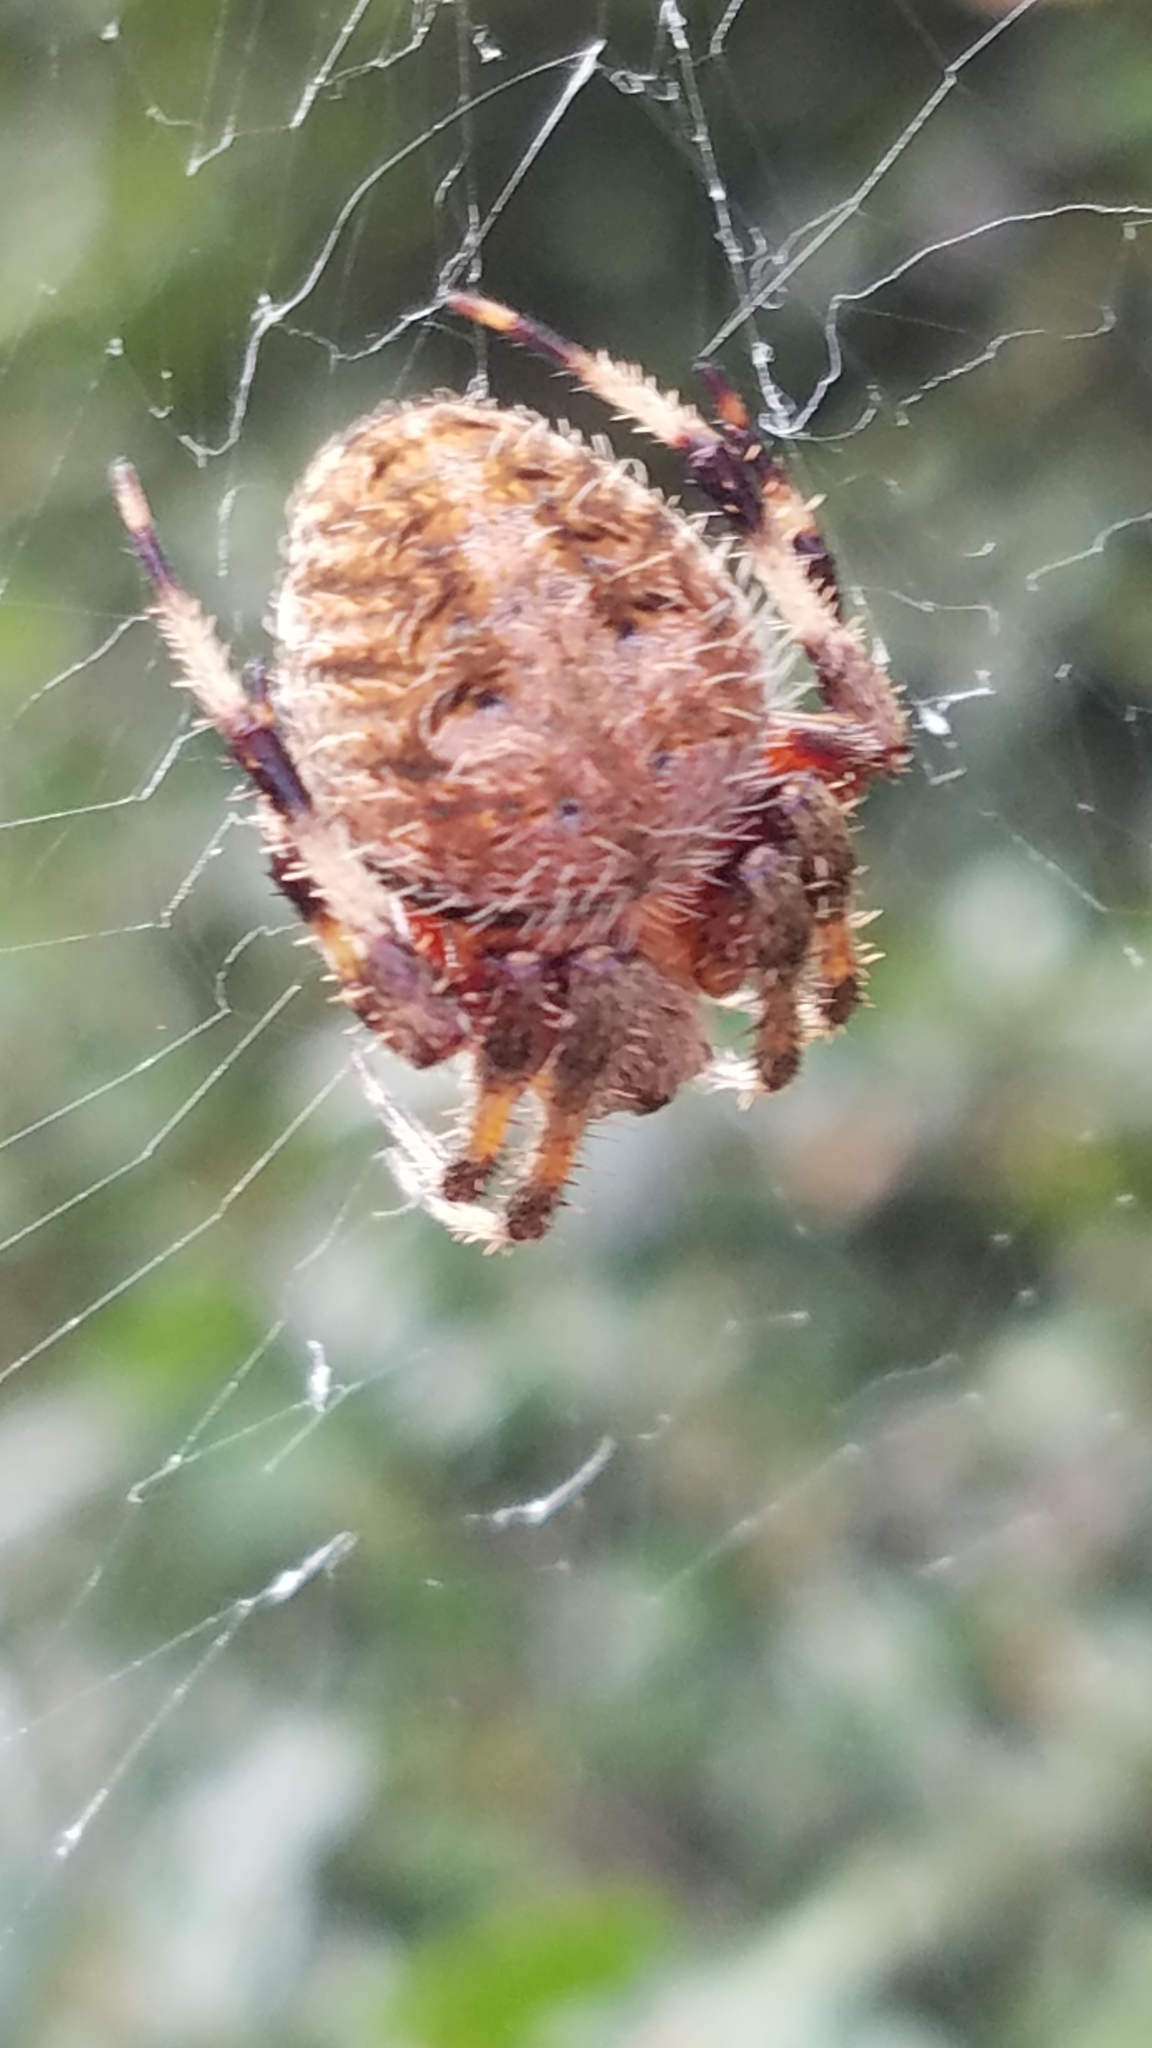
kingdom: Animalia
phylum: Arthropoda
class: Arachnida
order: Araneae
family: Araneidae
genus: Neoscona
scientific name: Neoscona crucifera
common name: Spotted orbweaver
